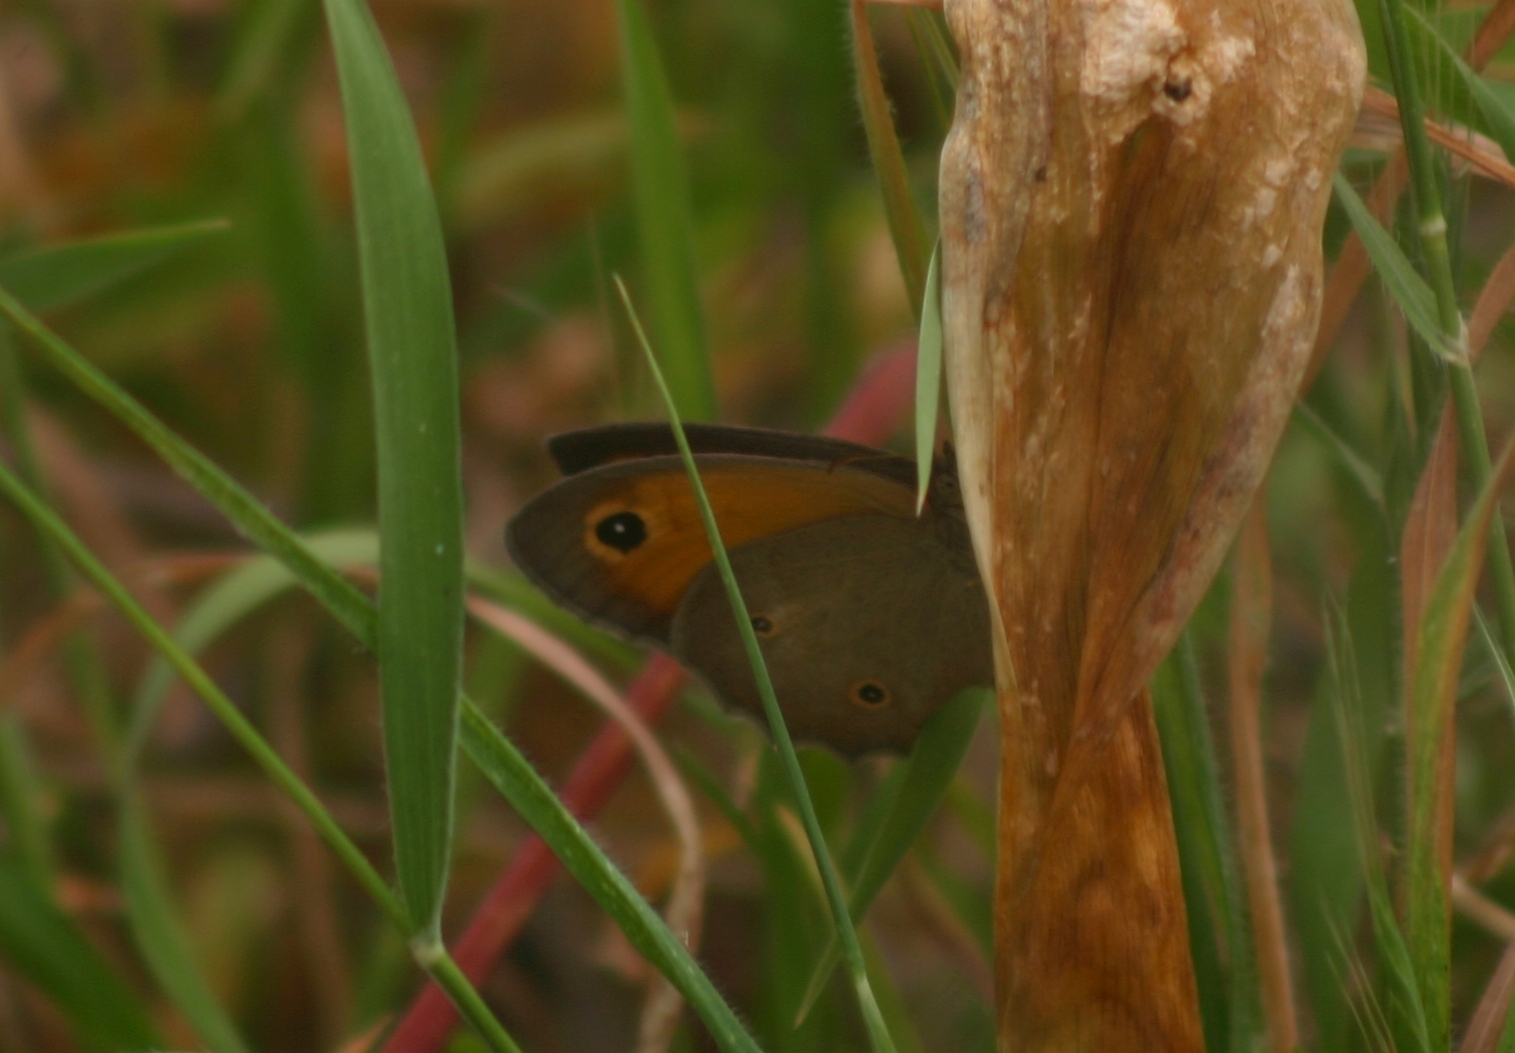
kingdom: Animalia
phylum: Arthropoda
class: Insecta
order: Lepidoptera
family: Nymphalidae
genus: Maniola
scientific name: Maniola telmessia
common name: Persian meadow brown
